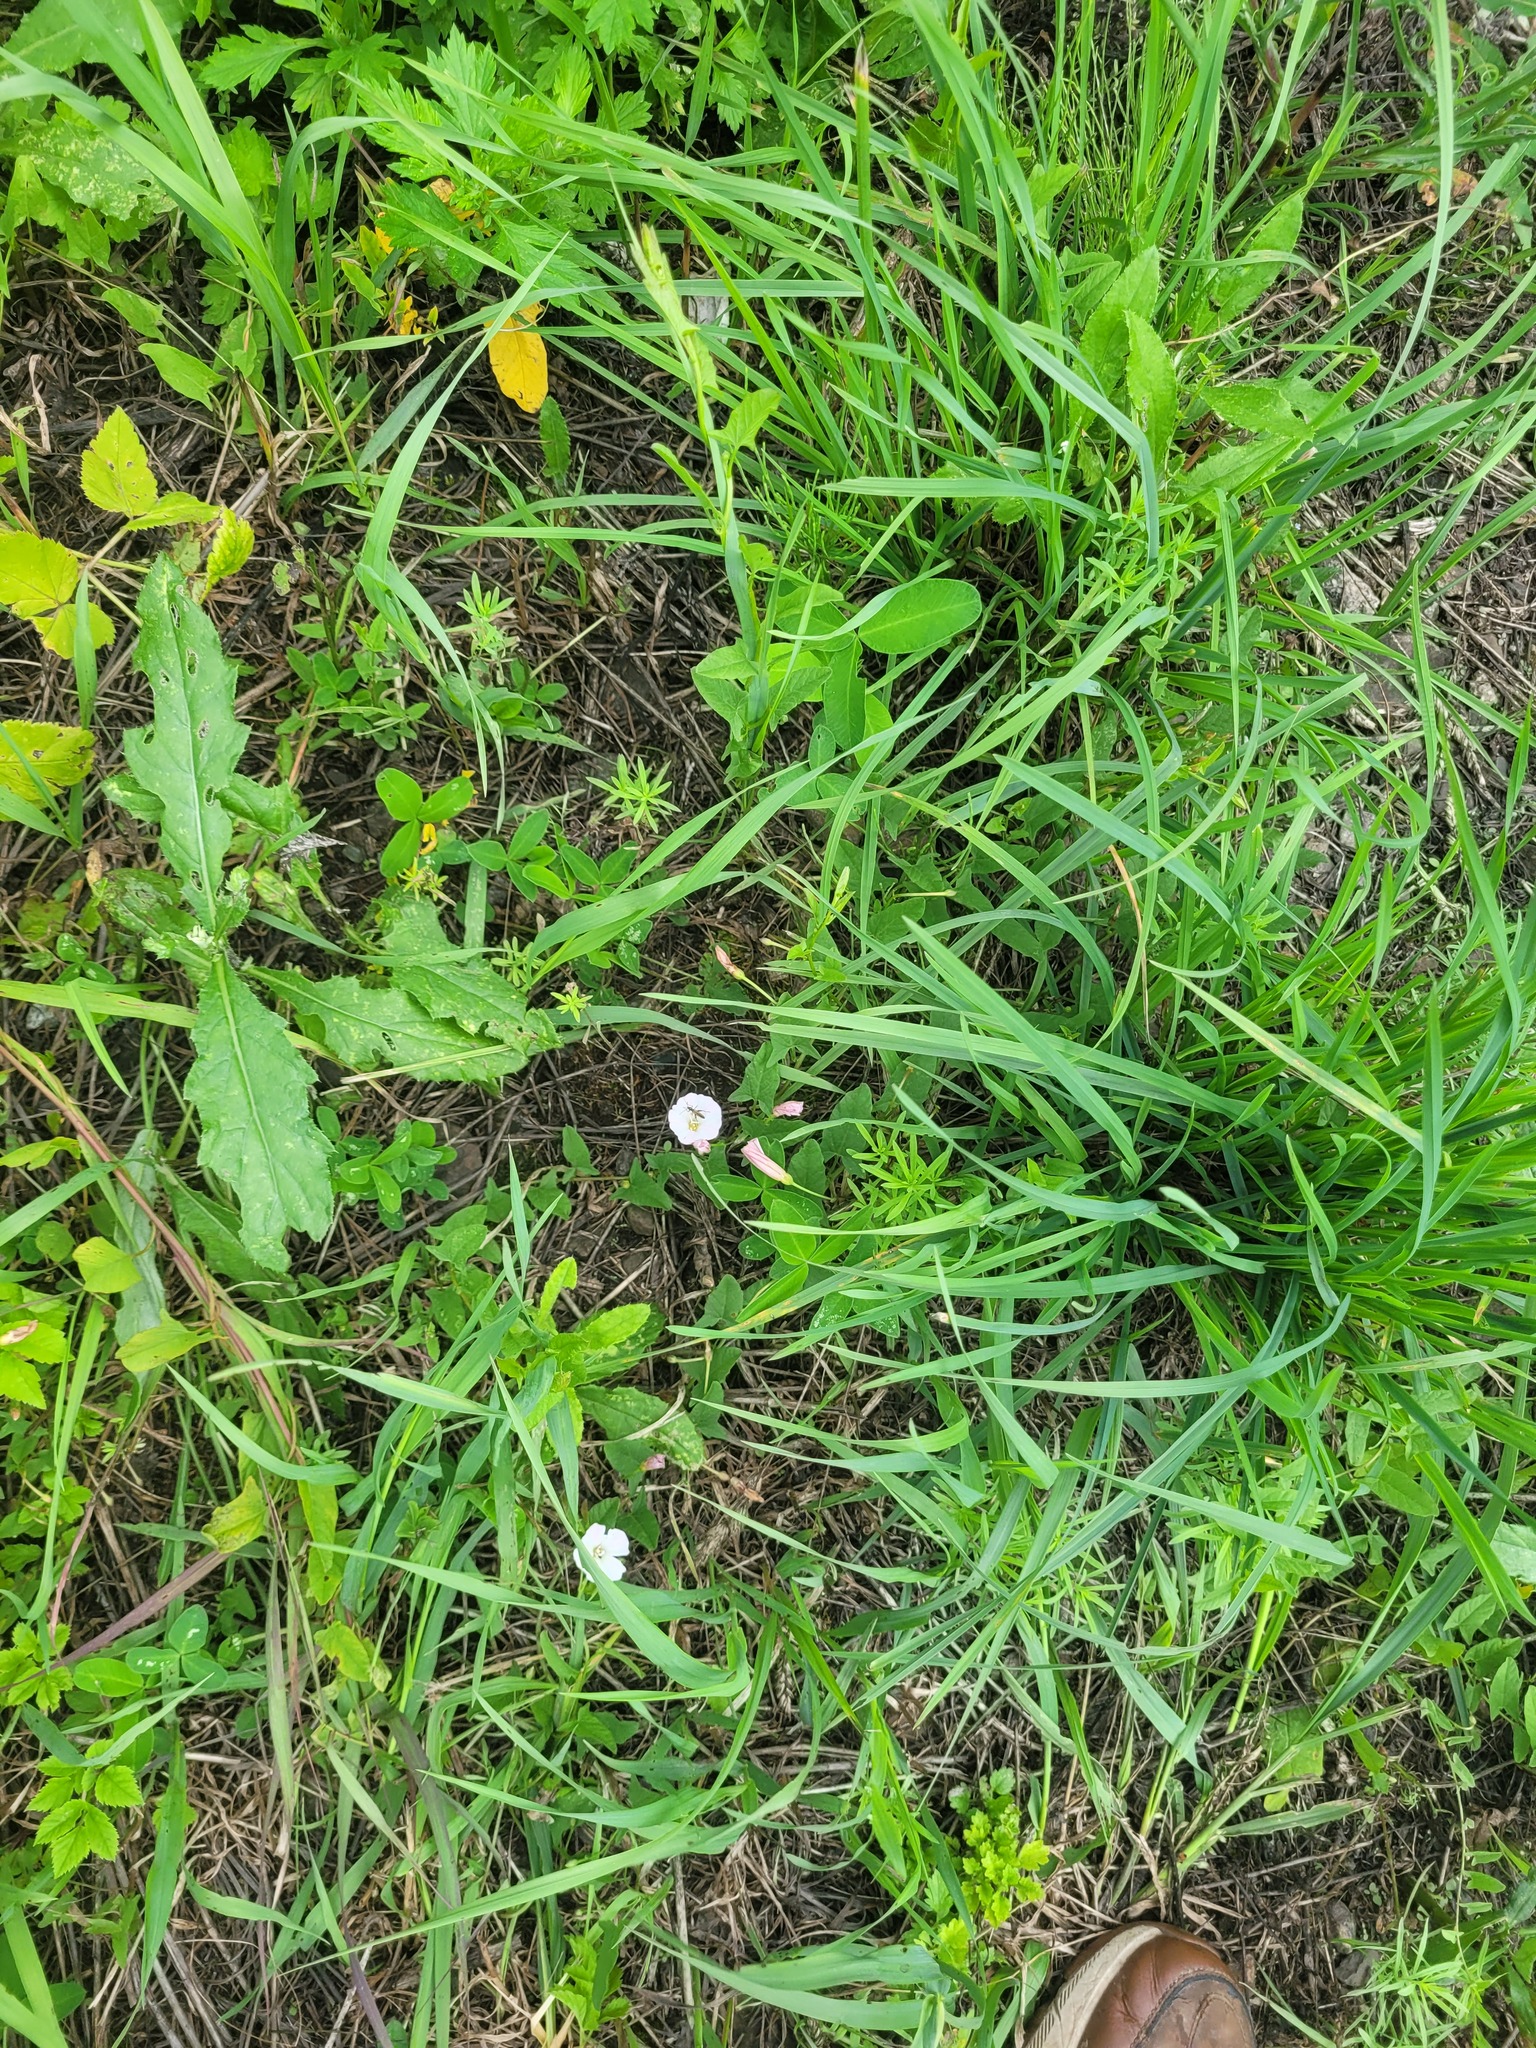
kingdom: Plantae
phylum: Tracheophyta
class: Magnoliopsida
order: Solanales
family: Convolvulaceae
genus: Convolvulus
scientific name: Convolvulus arvensis
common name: Field bindweed
